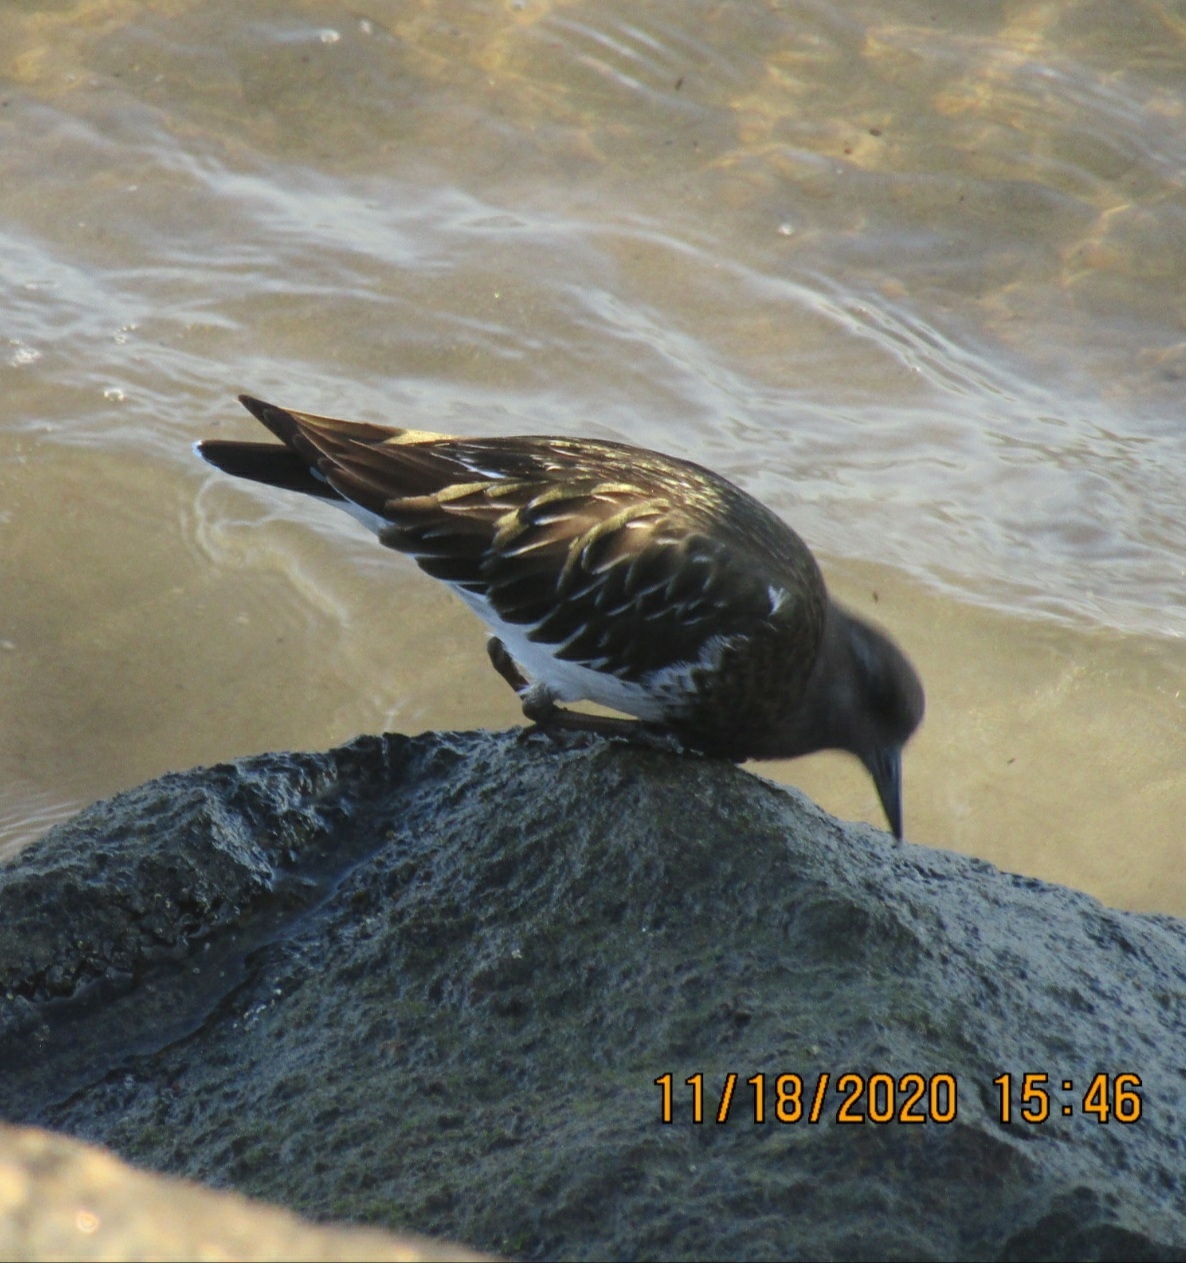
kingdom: Animalia
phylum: Chordata
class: Aves
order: Charadriiformes
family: Scolopacidae
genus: Arenaria
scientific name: Arenaria melanocephala
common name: Black turnstone
